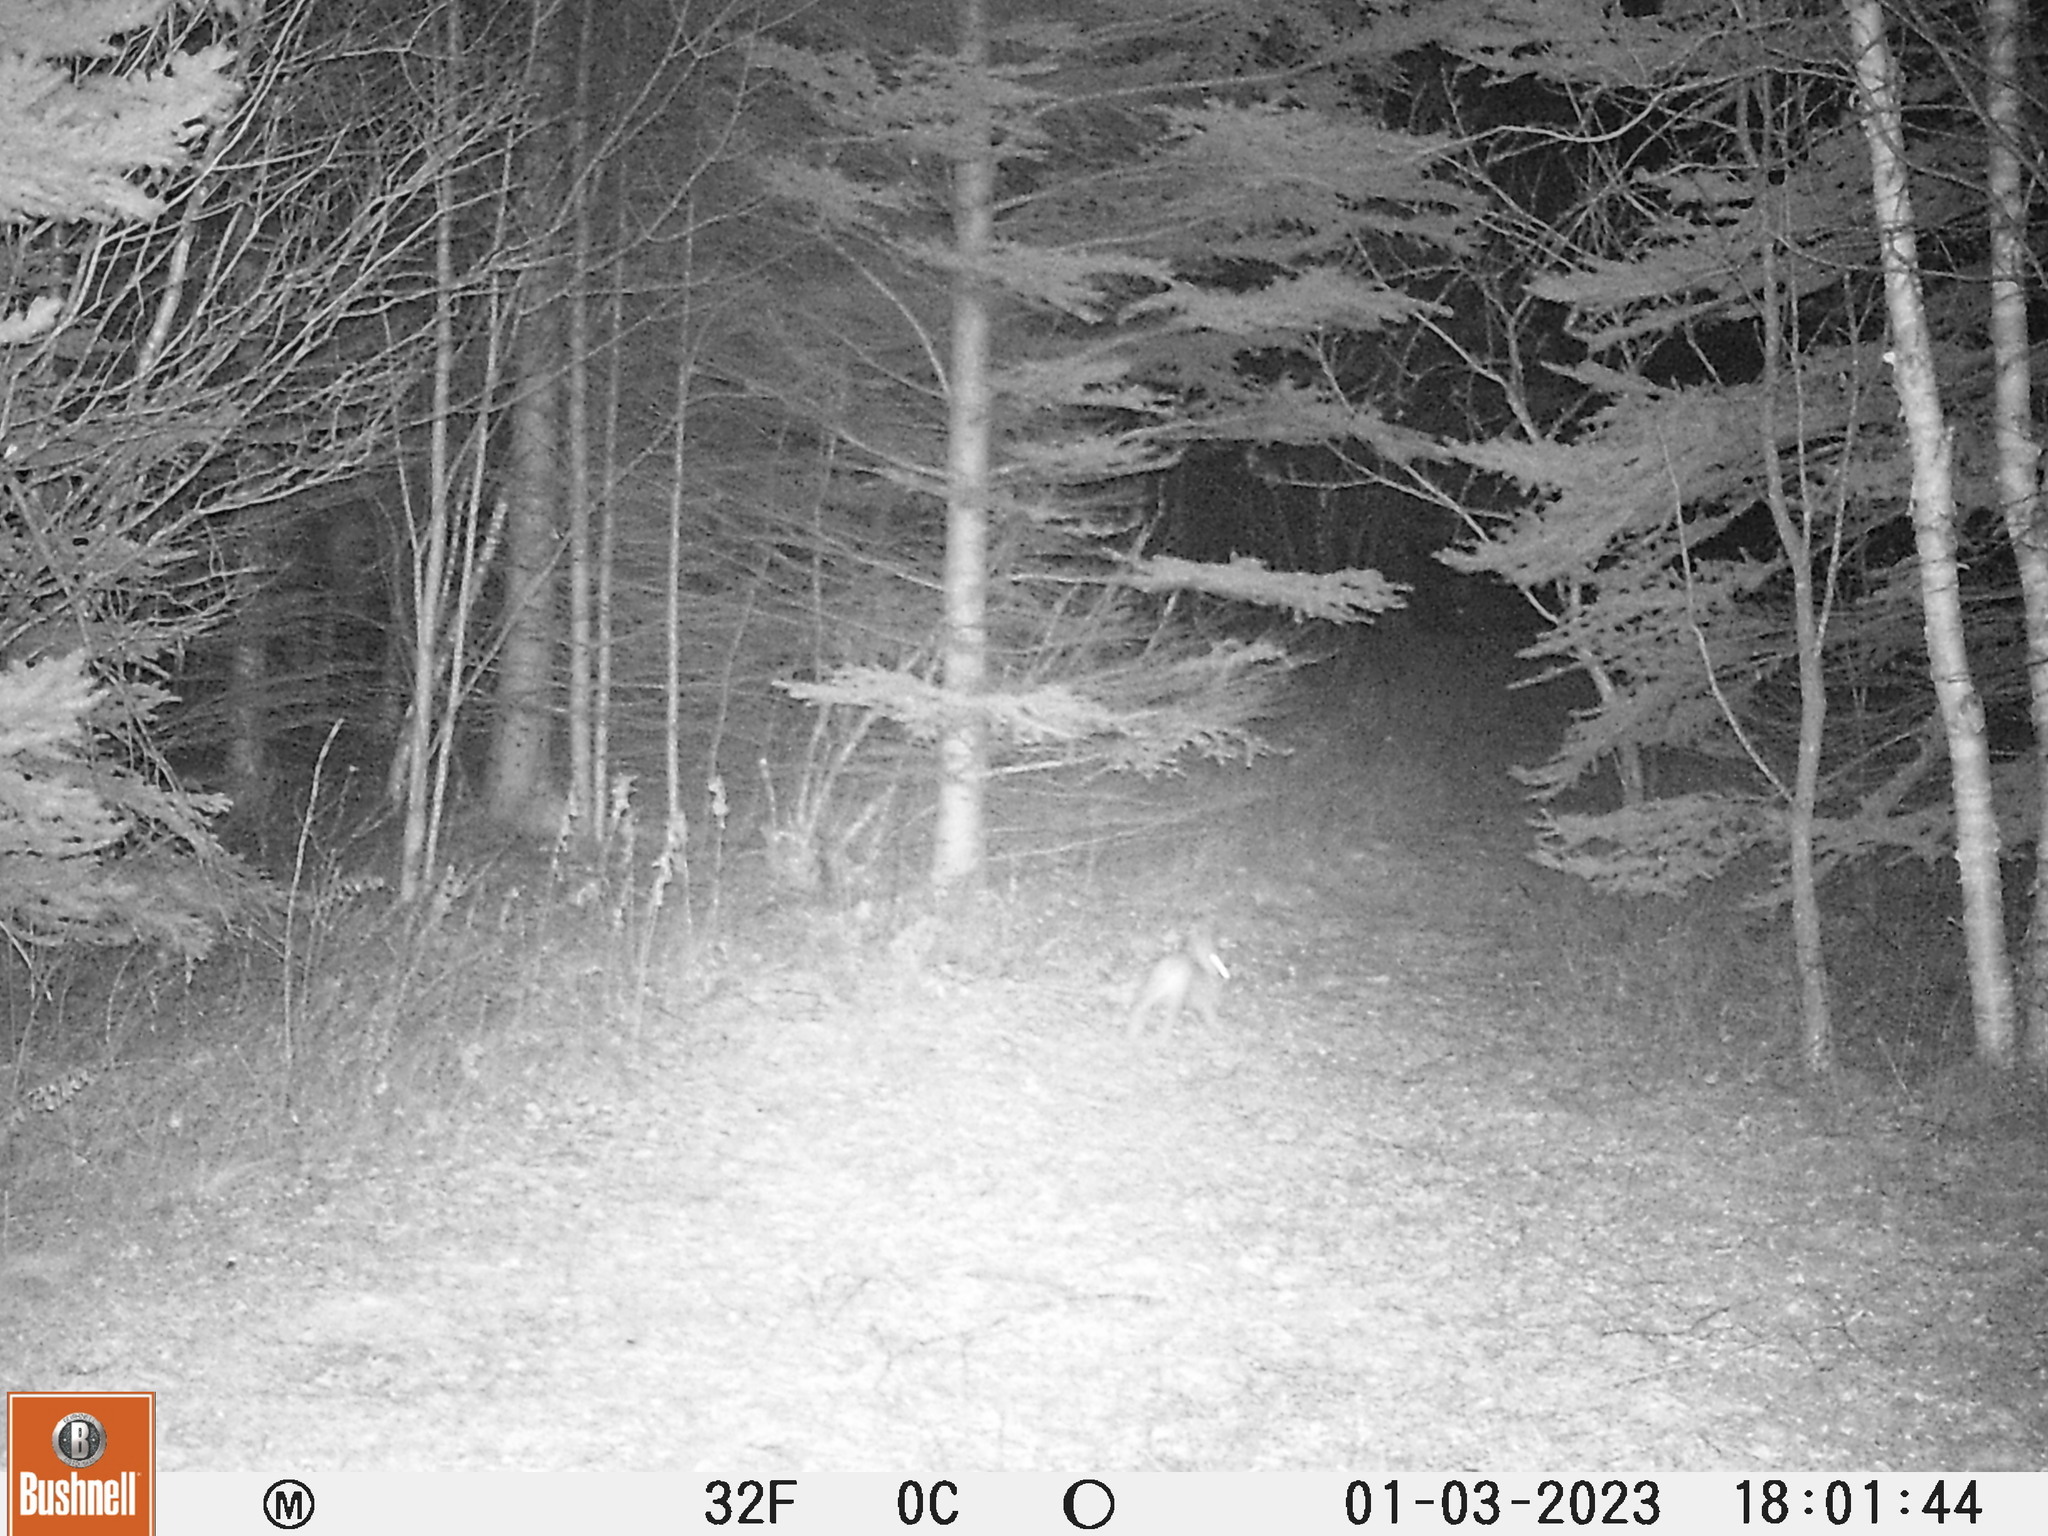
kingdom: Animalia
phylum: Chordata
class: Mammalia
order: Lagomorpha
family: Leporidae
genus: Lepus
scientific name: Lepus americanus
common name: Snowshoe hare
